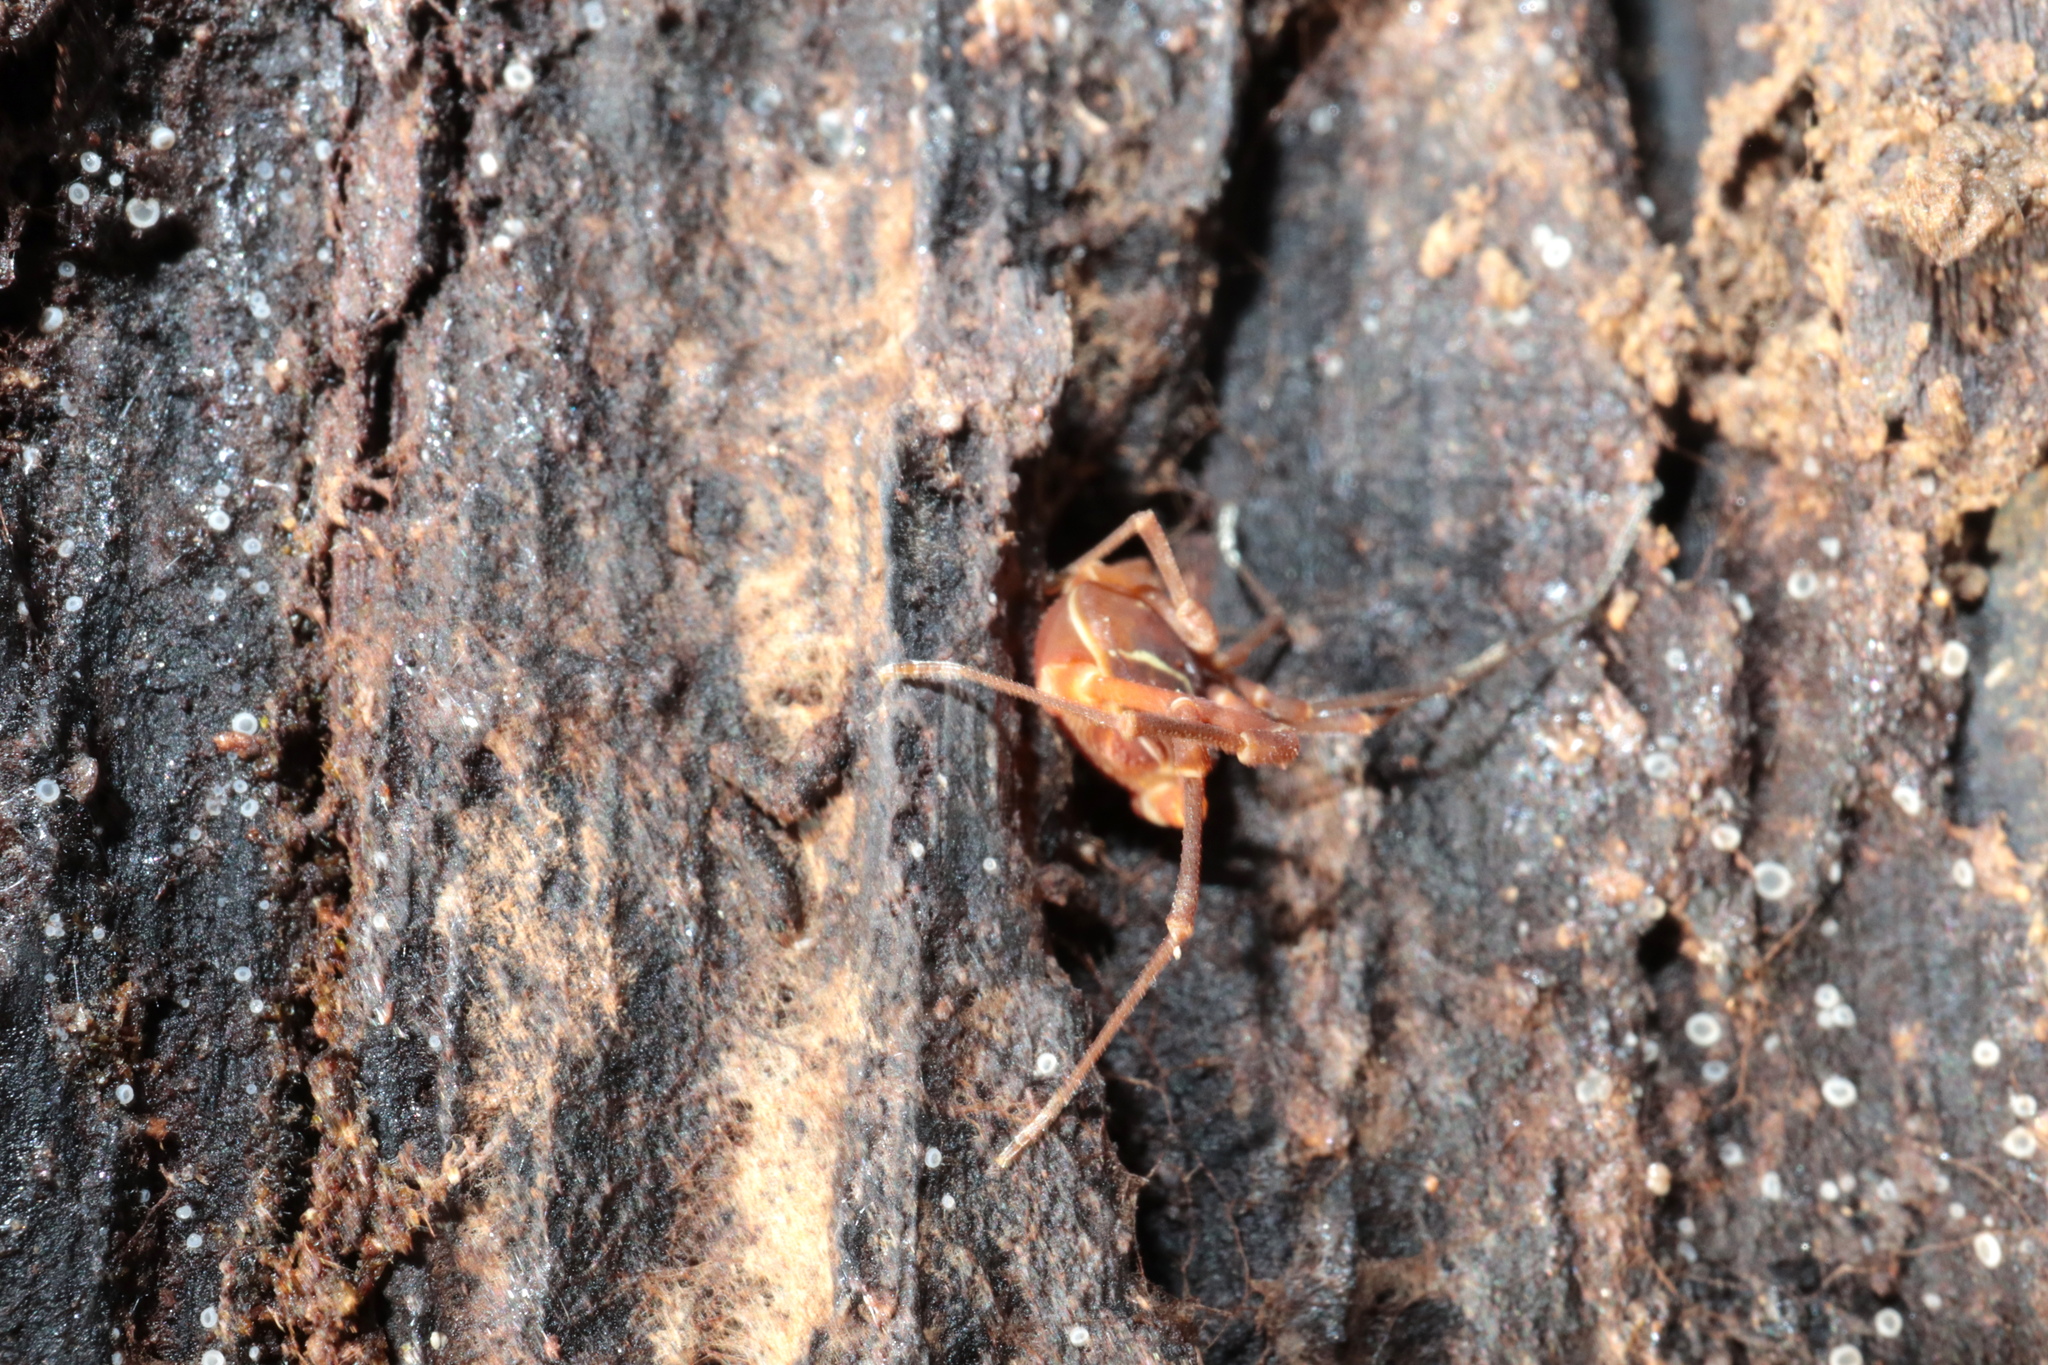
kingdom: Animalia
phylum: Arthropoda
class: Arachnida
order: Opiliones
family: Cosmetidae
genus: Libitioides
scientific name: Libitioides sayi
